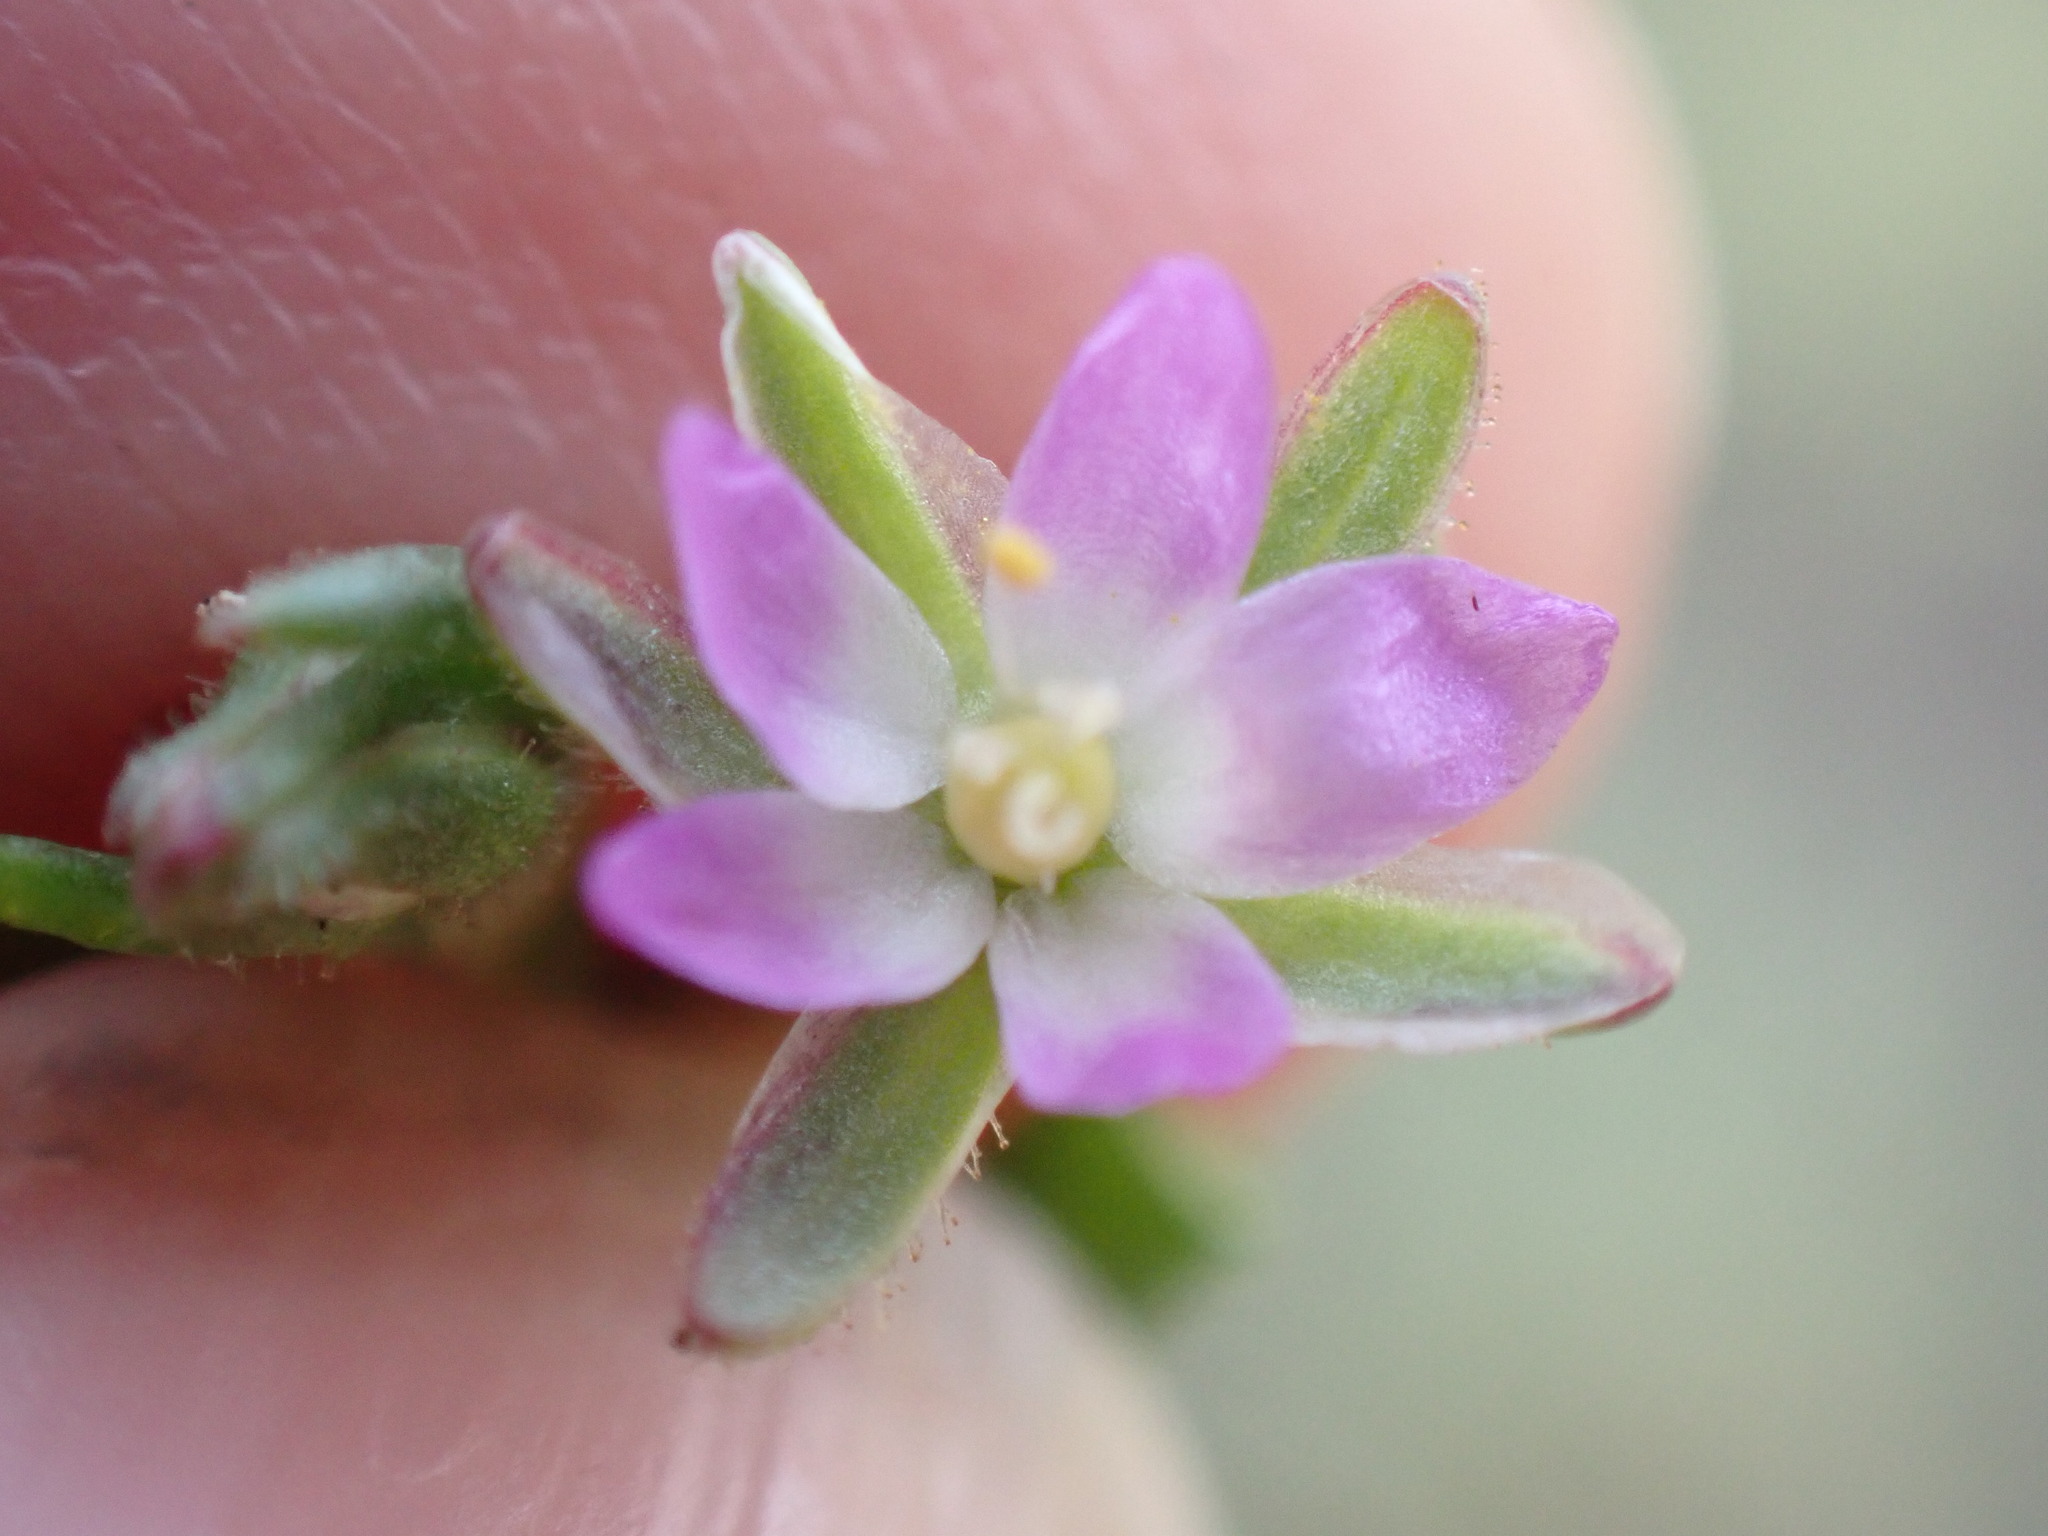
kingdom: Plantae
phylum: Tracheophyta
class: Magnoliopsida
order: Caryophyllales
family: Caryophyllaceae
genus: Spergularia
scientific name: Spergularia marina
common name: Lesser sea-spurrey
